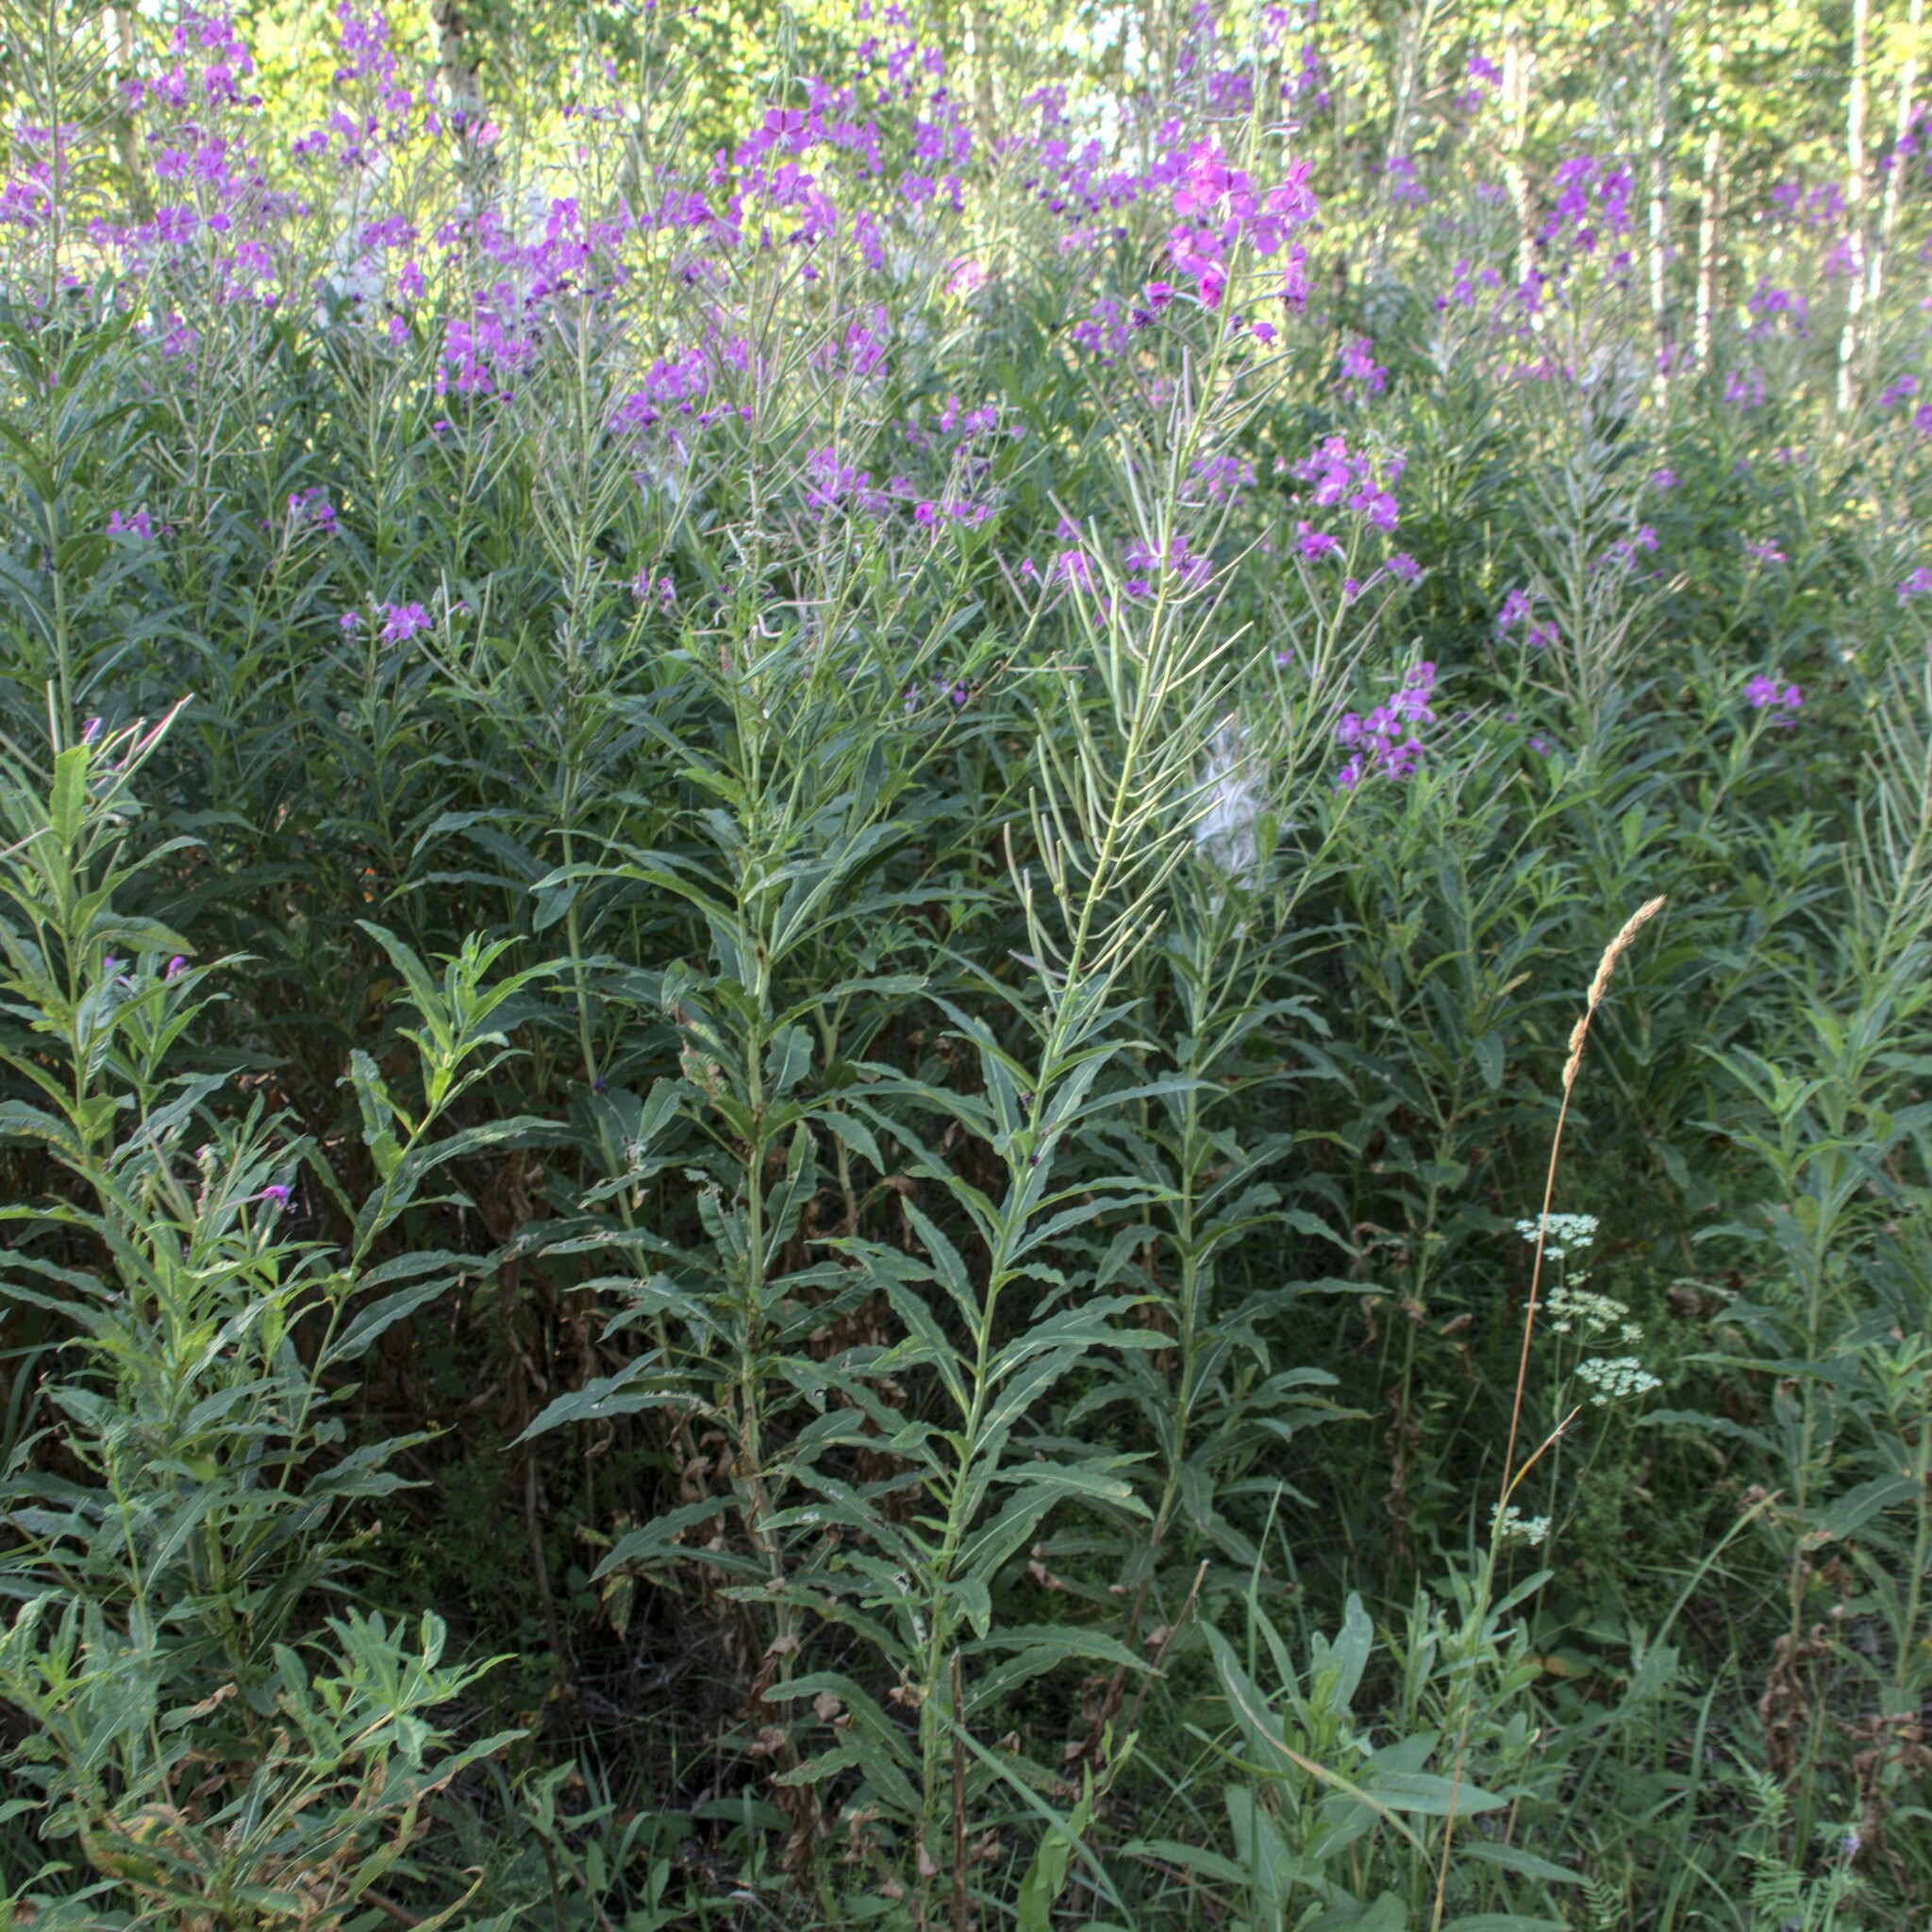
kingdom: Plantae
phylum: Tracheophyta
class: Magnoliopsida
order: Myrtales
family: Onagraceae
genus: Chamaenerion
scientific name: Chamaenerion angustifolium
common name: Fireweed
